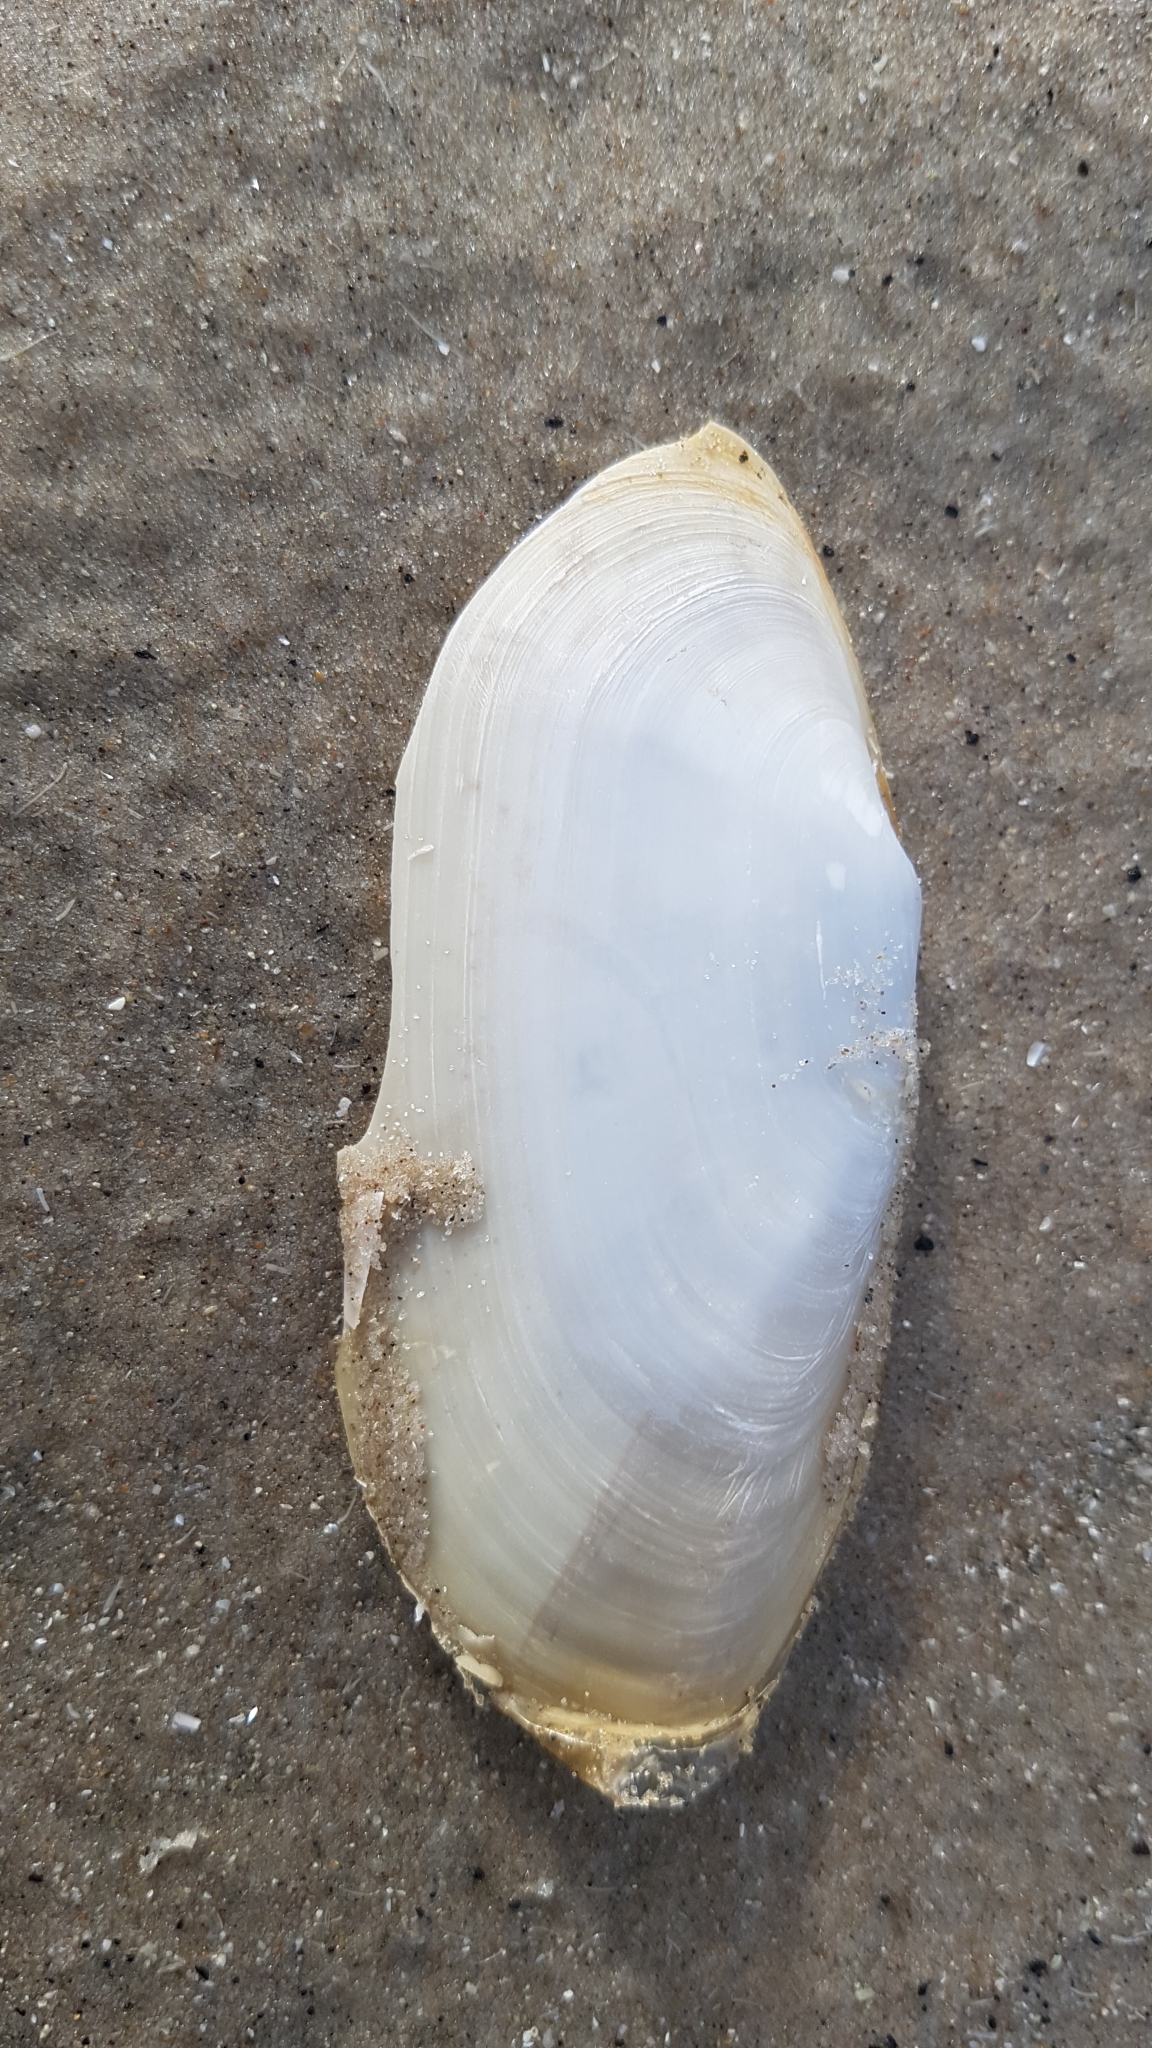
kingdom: Animalia
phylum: Mollusca
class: Bivalvia
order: Venerida
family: Mactridae
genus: Lutraria
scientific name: Lutraria lutraria
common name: Common otter shell
